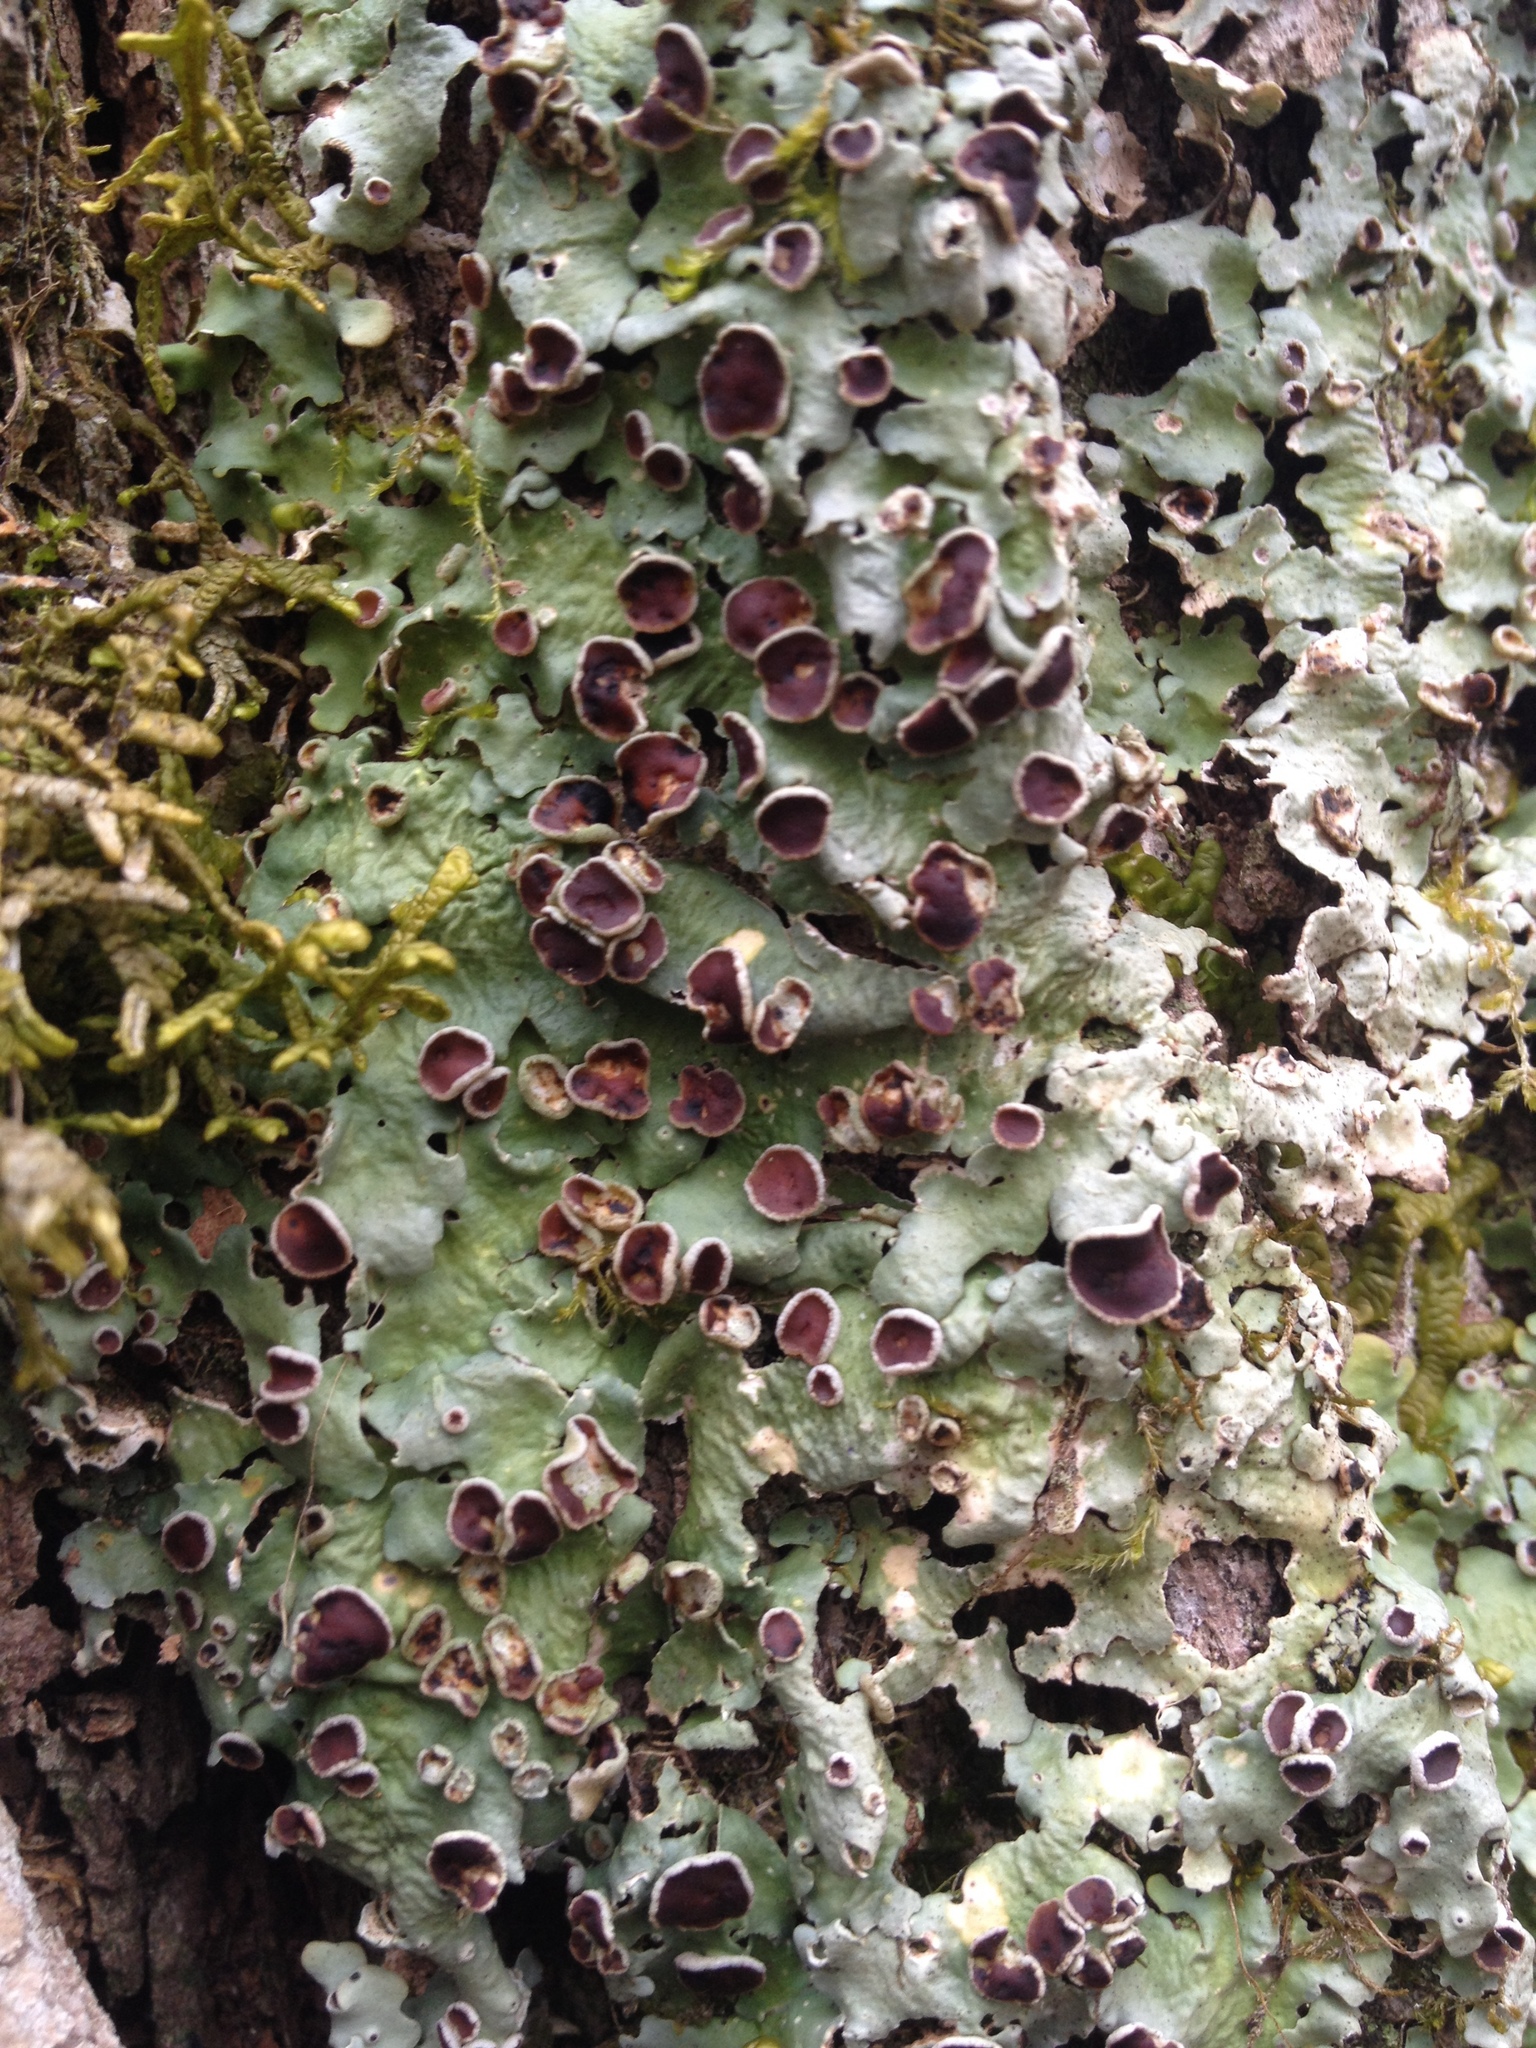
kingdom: Fungi
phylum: Ascomycota
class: Lecanoromycetes
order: Peltigerales
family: Lobariaceae
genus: Ricasolia
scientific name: Ricasolia quercizans
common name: Smooth lungwort
